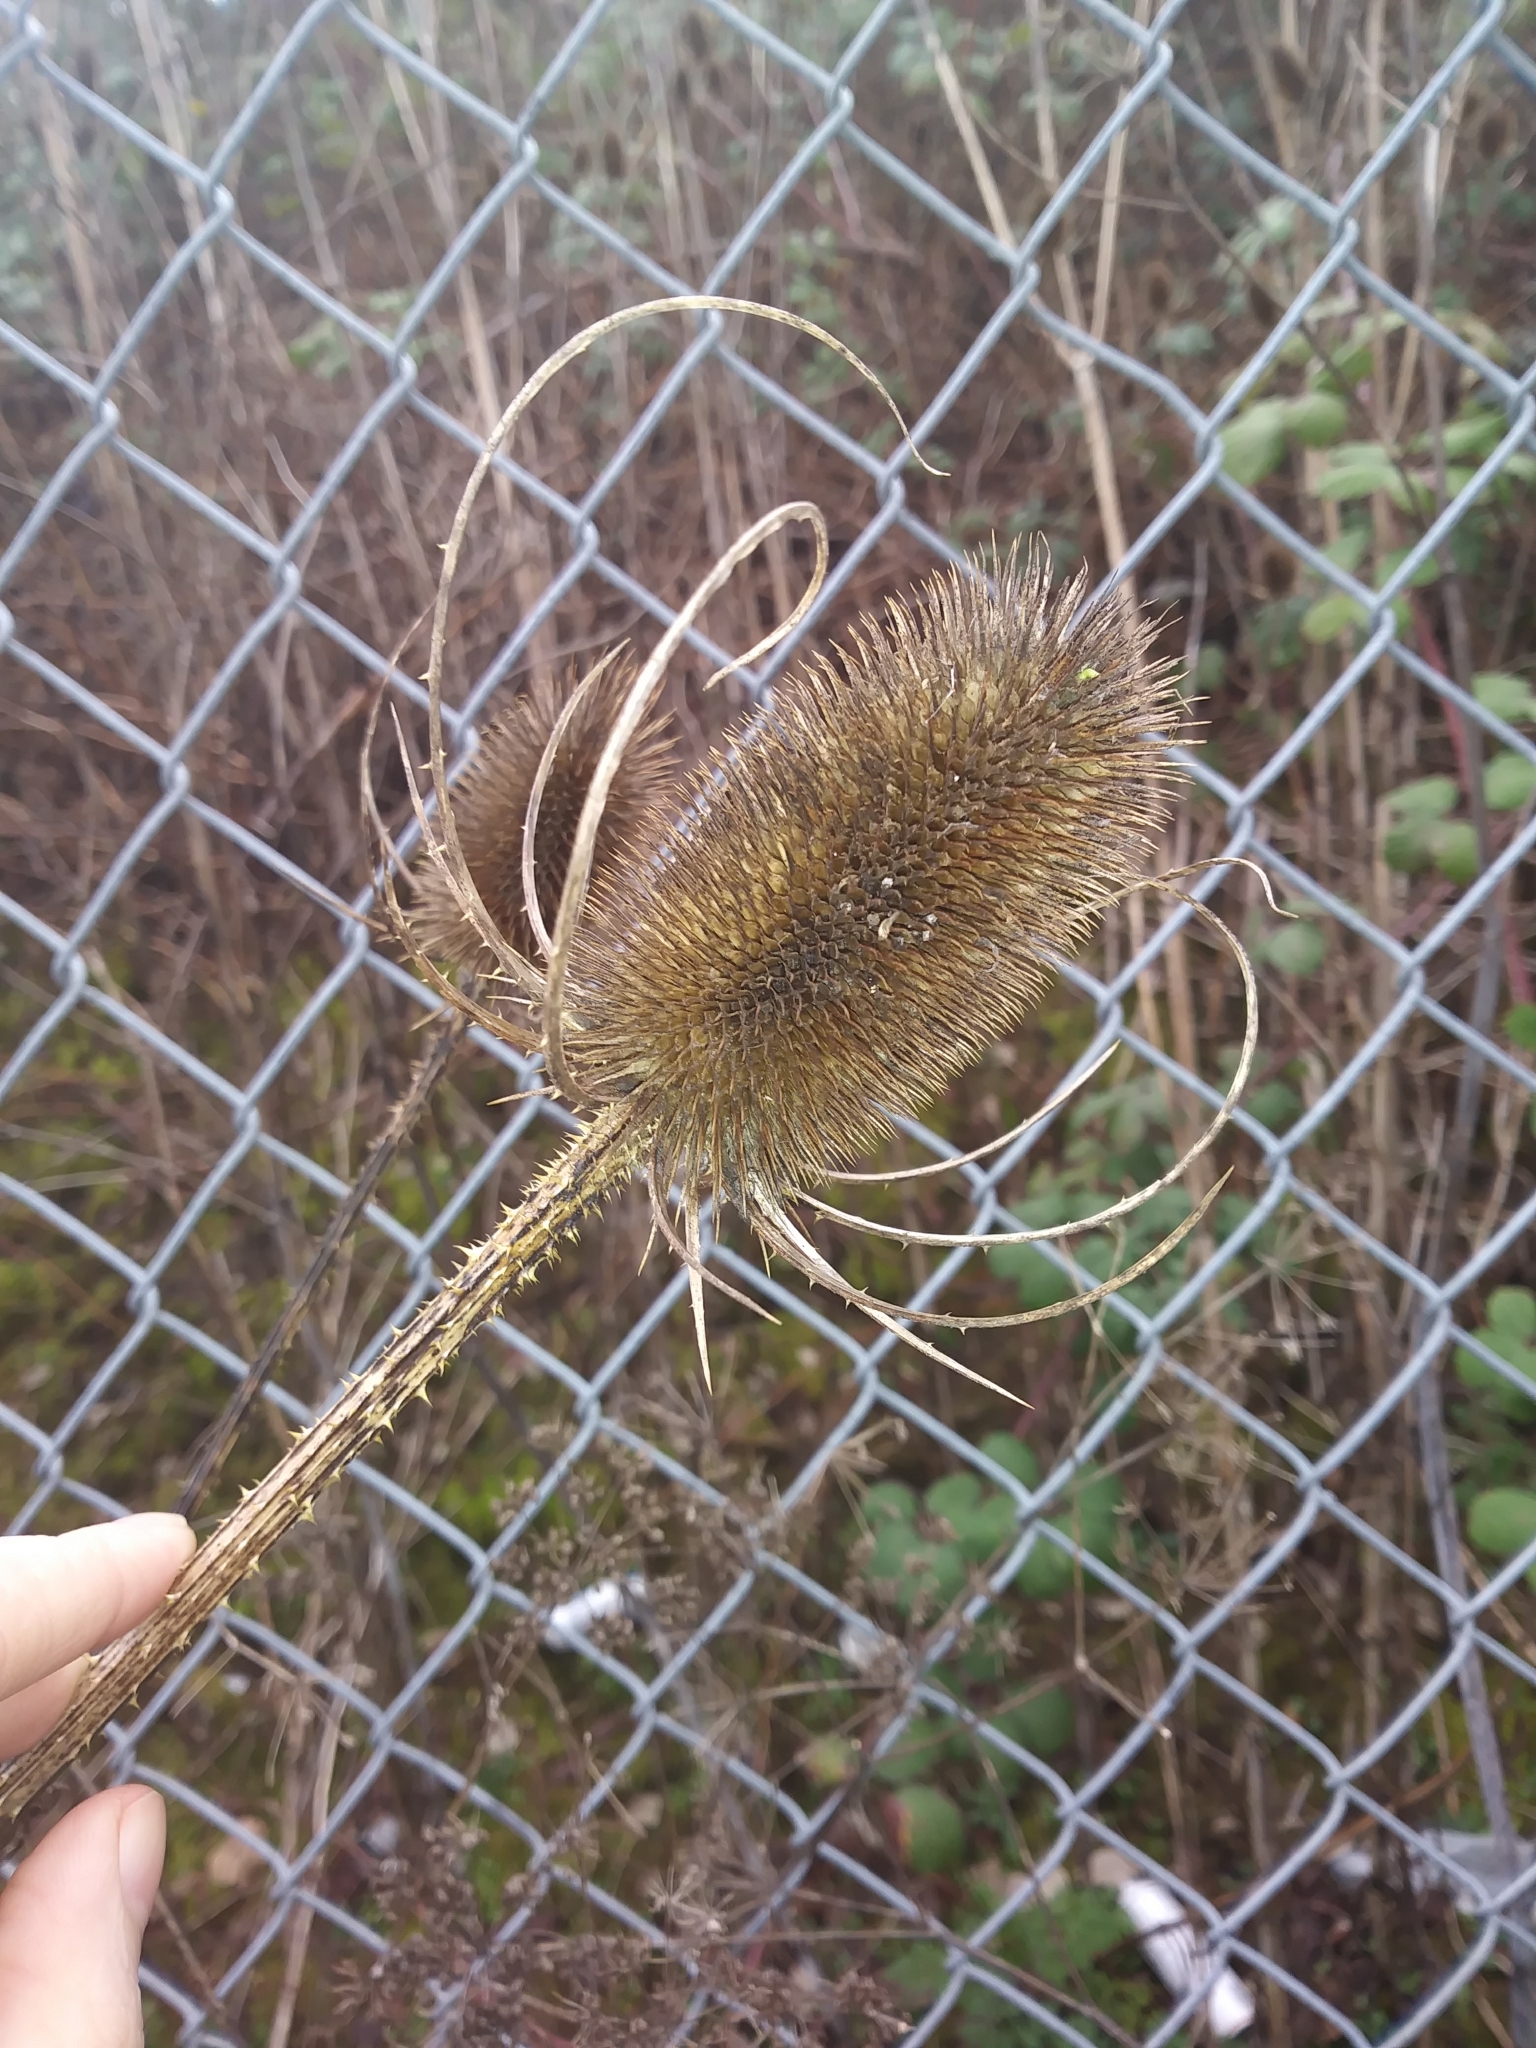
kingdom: Plantae
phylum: Tracheophyta
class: Magnoliopsida
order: Dipsacales
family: Caprifoliaceae
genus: Dipsacus
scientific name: Dipsacus fullonum
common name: Teasel
